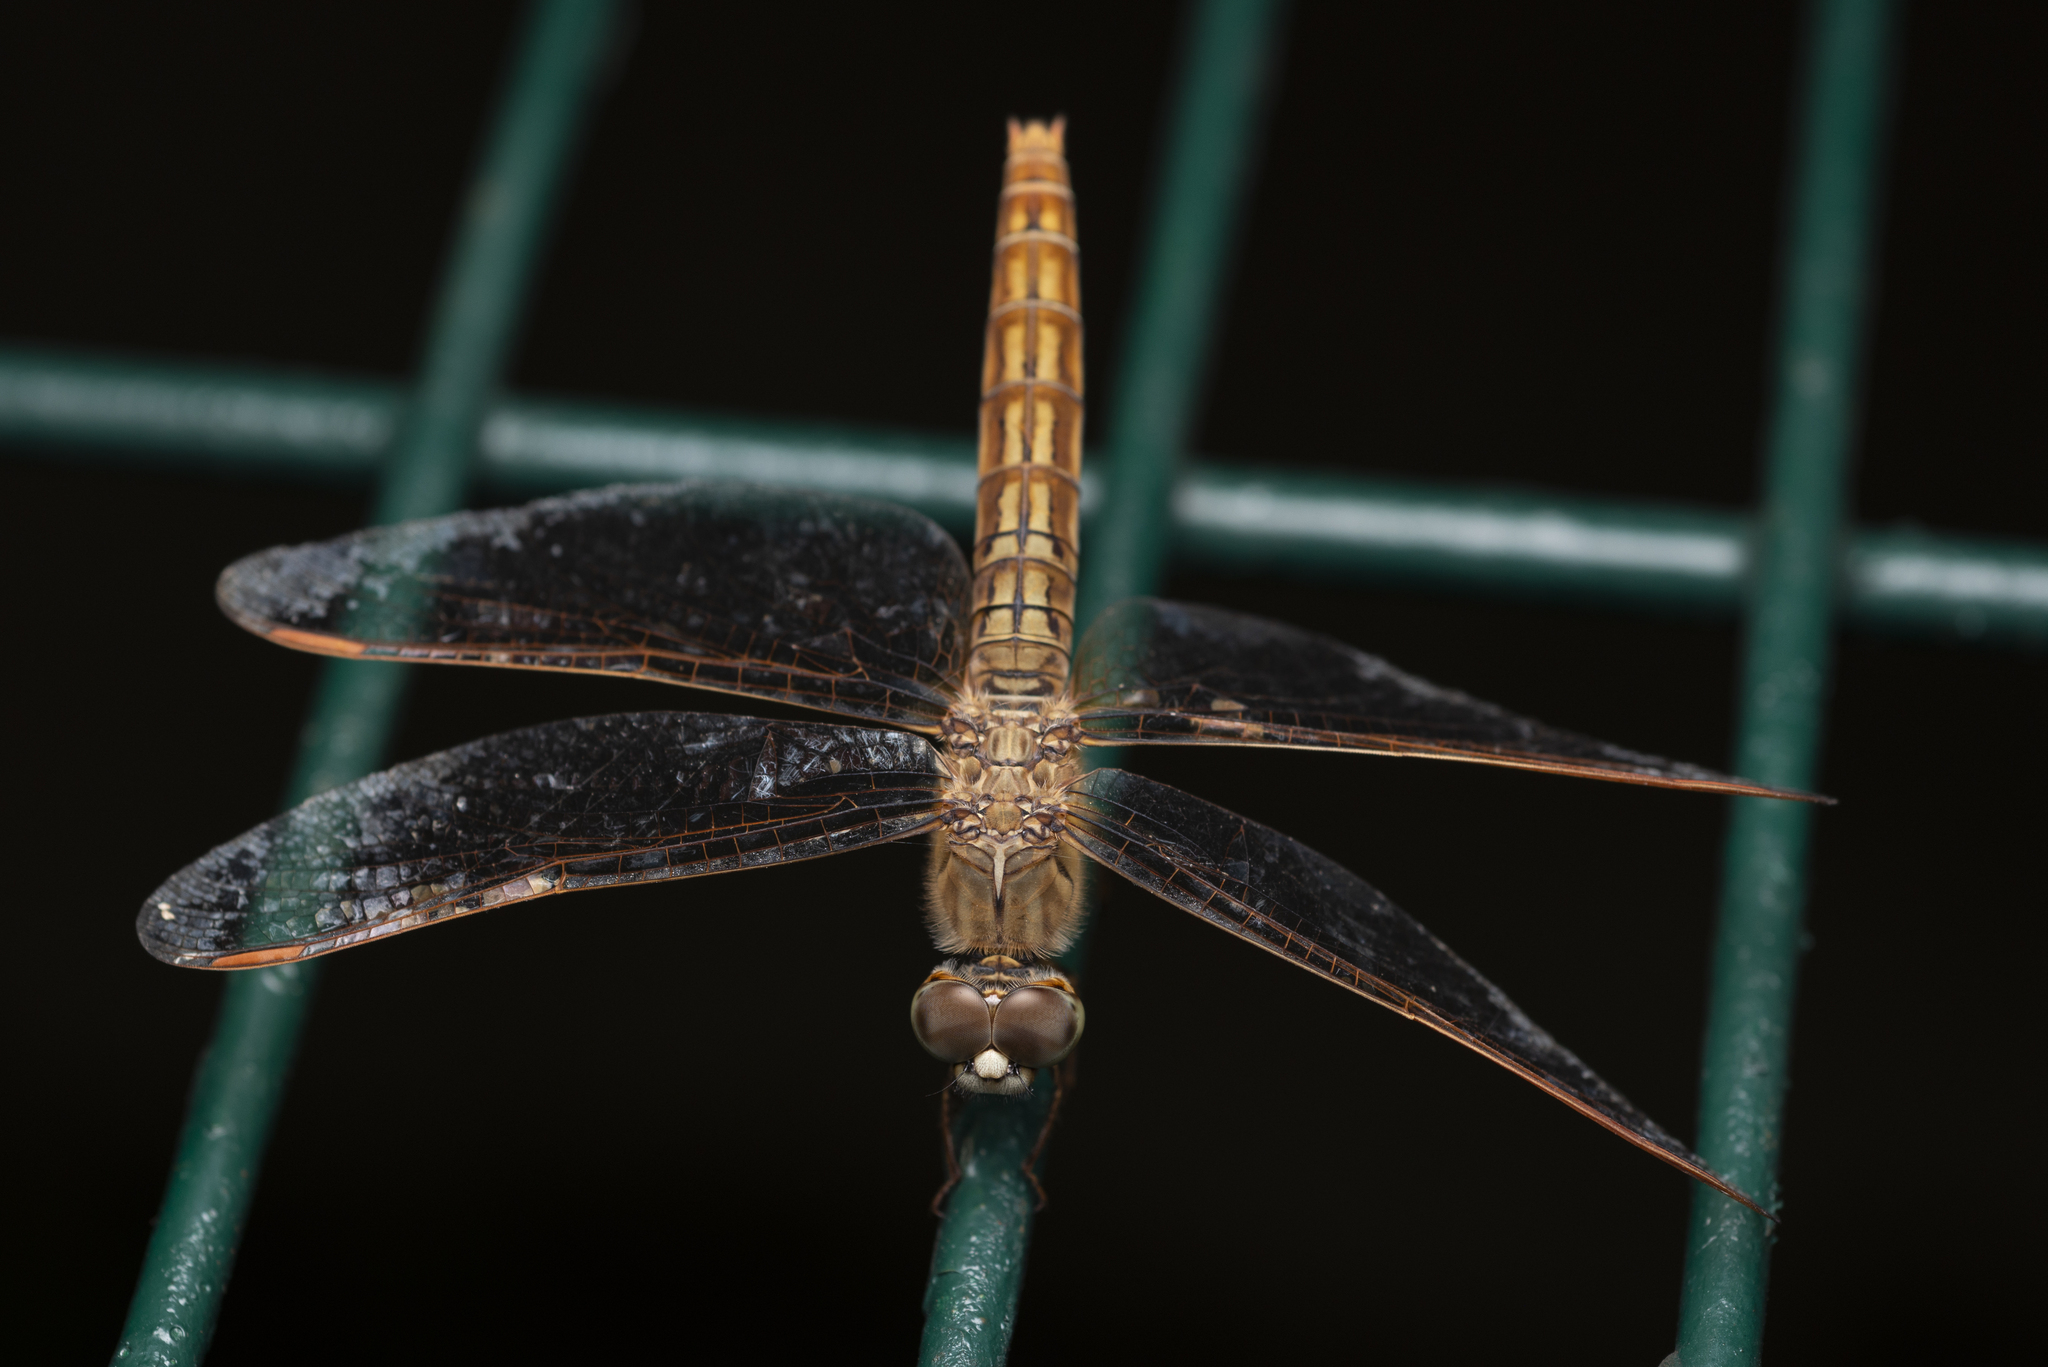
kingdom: Animalia
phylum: Arthropoda
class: Insecta
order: Odonata
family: Libellulidae
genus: Brachythemis
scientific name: Brachythemis contaminata
